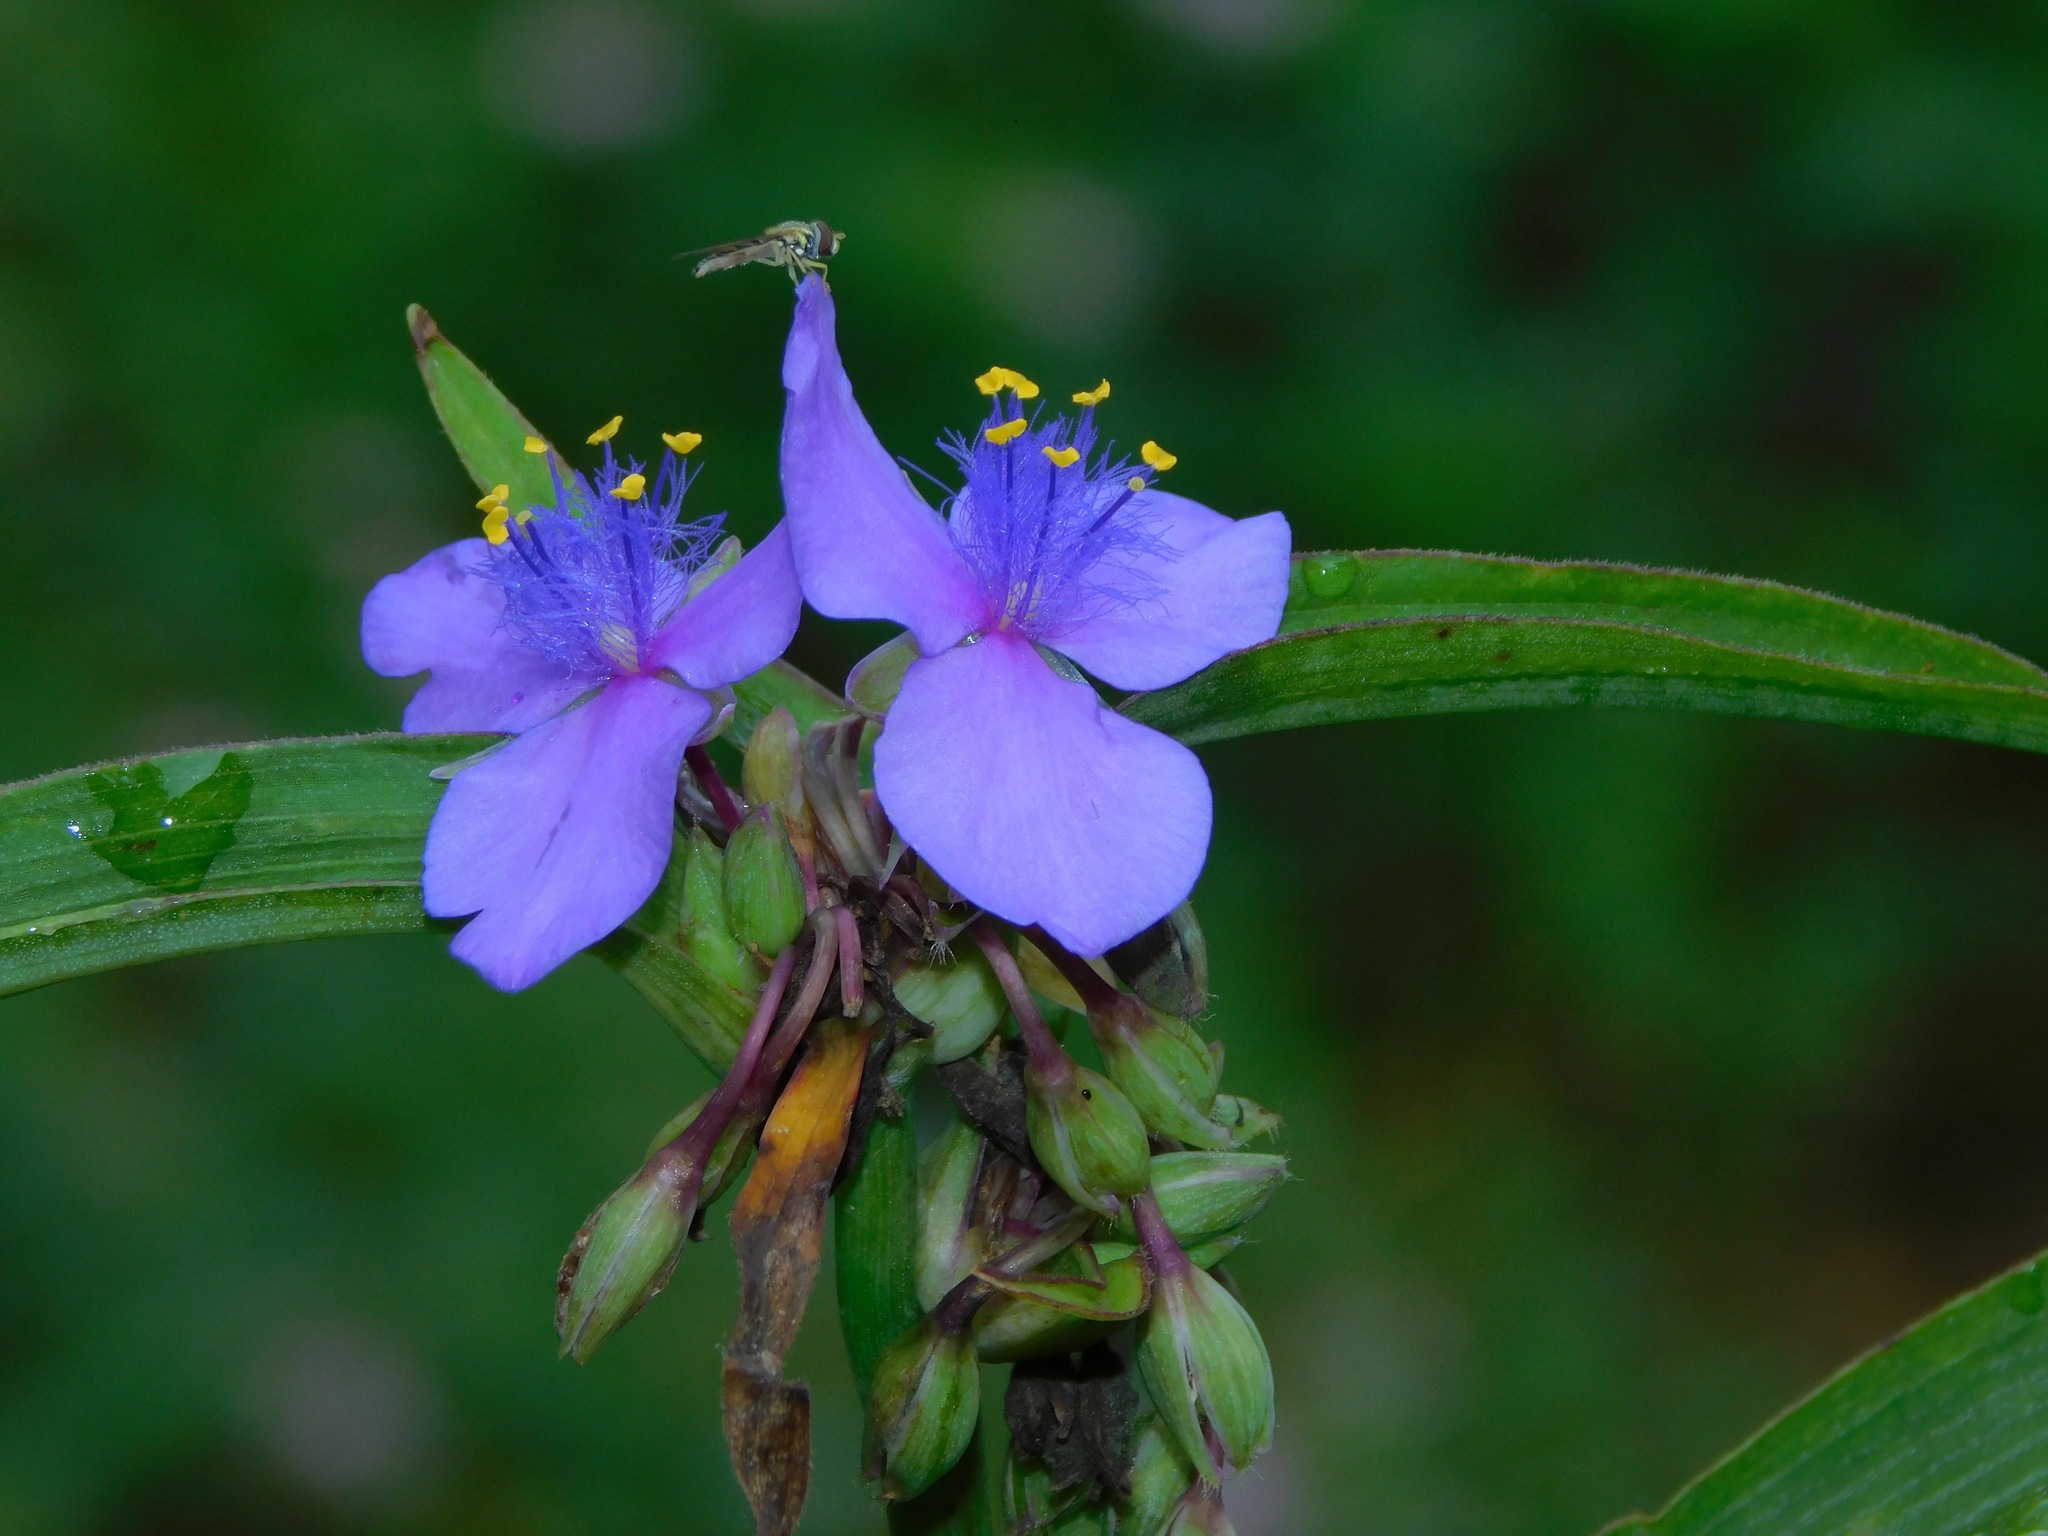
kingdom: Plantae
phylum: Tracheophyta
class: Liliopsida
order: Commelinales
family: Commelinaceae
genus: Tradescantia
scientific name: Tradescantia ohiensis
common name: Ohio spiderwort
